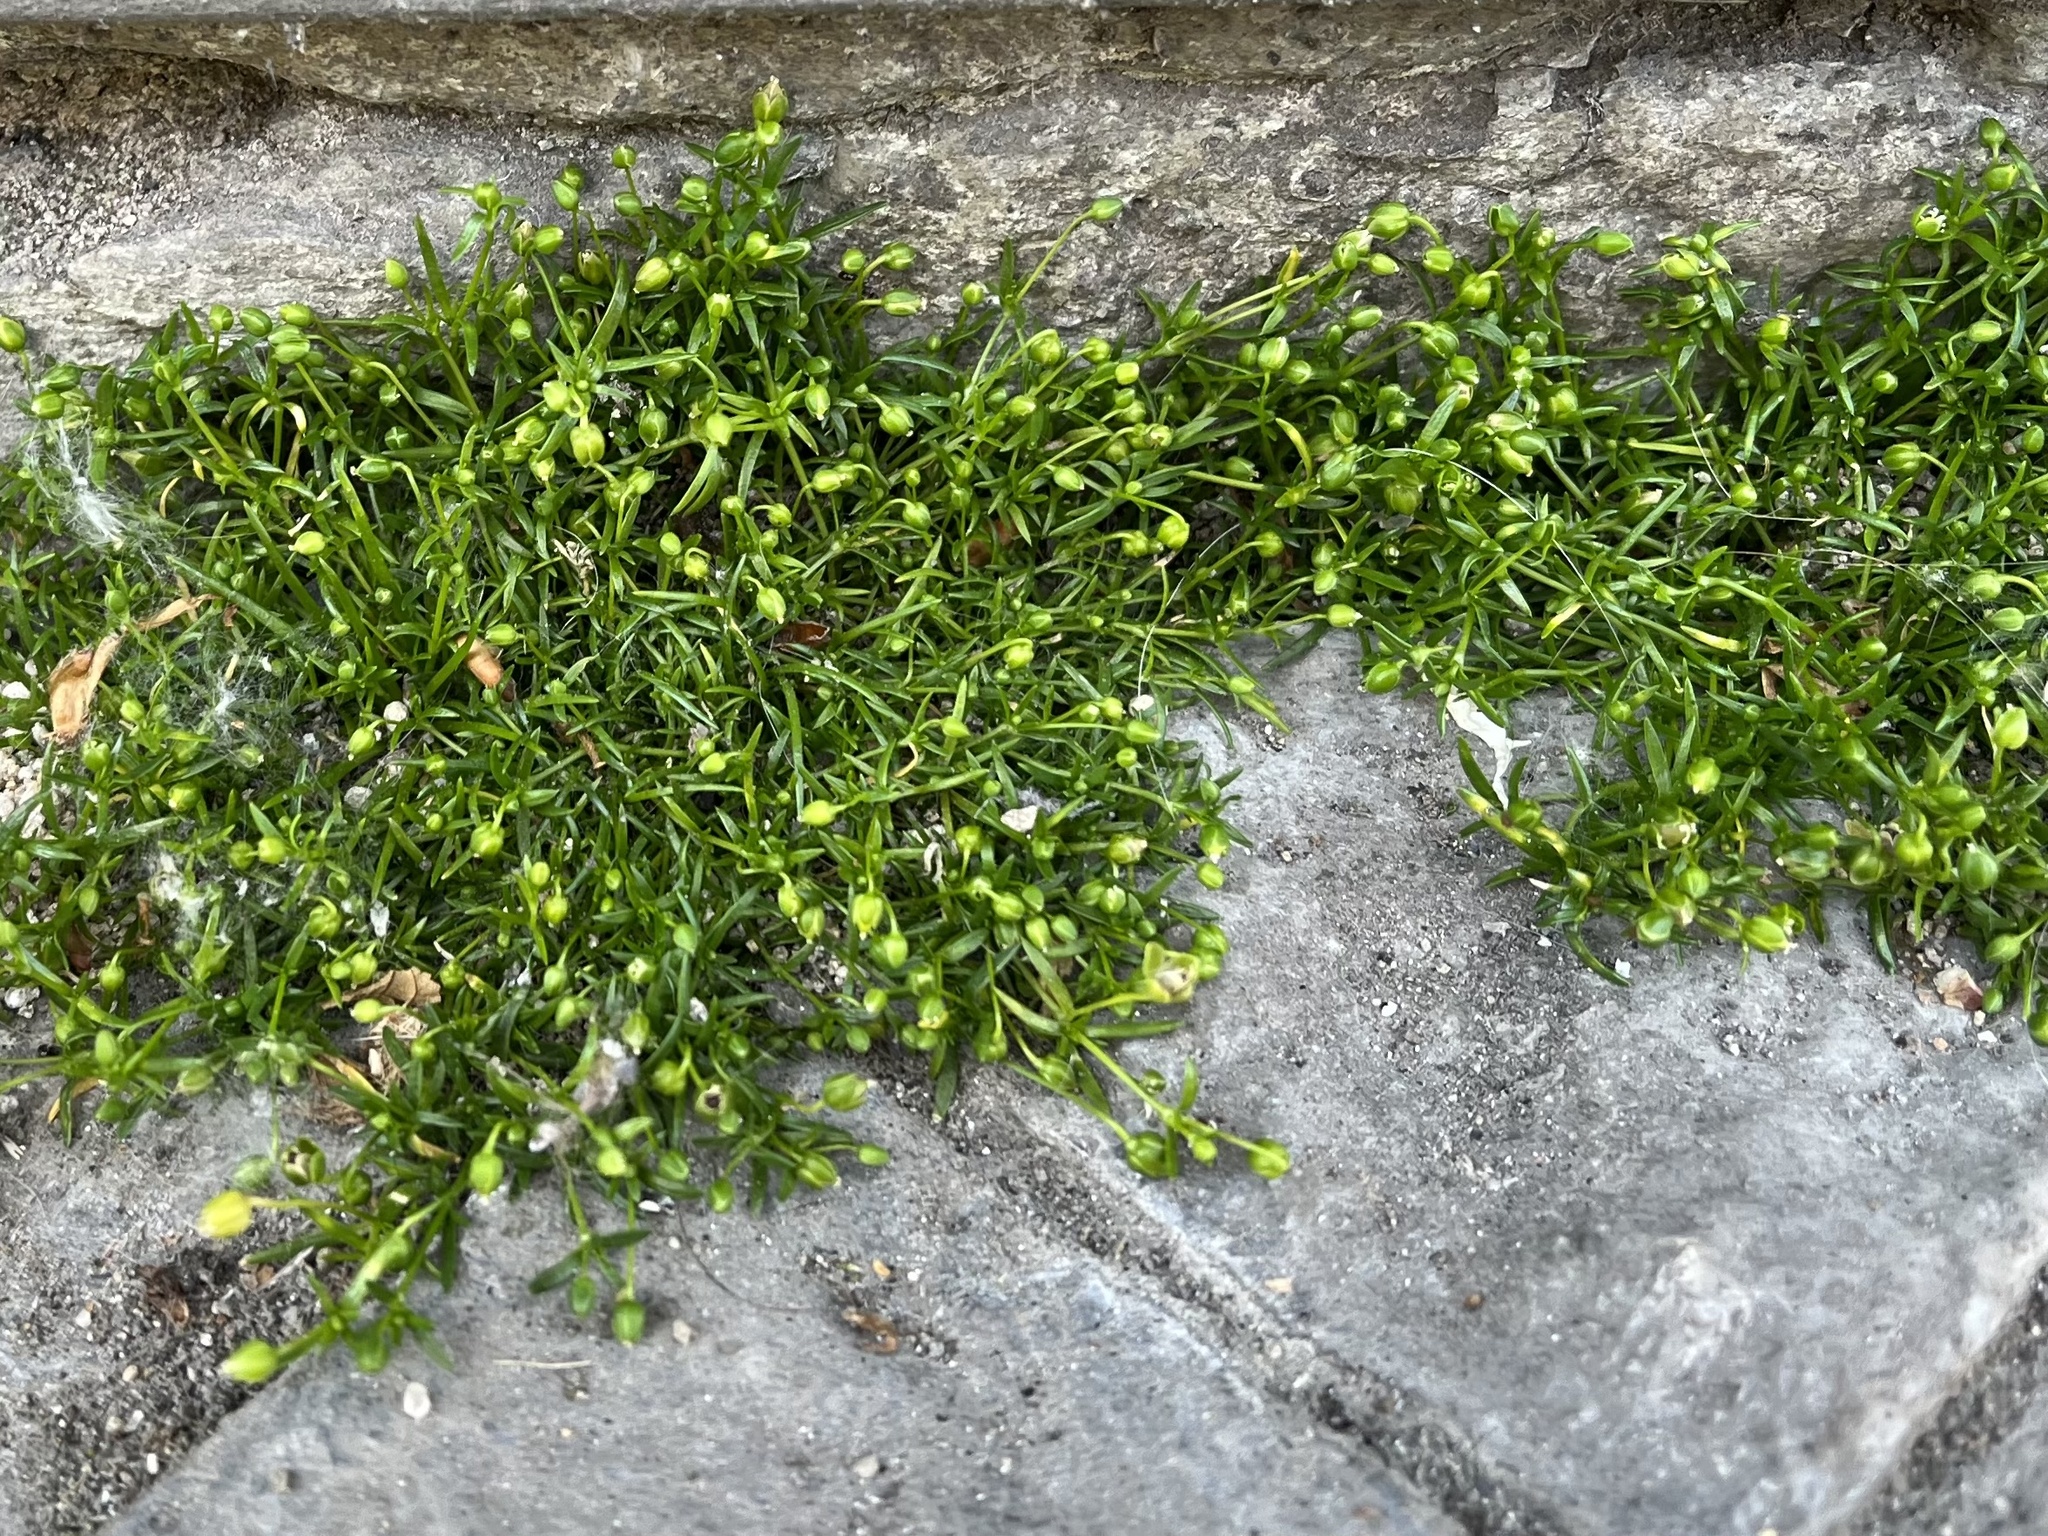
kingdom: Plantae
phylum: Tracheophyta
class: Magnoliopsida
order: Caryophyllales
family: Caryophyllaceae
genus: Sagina
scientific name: Sagina procumbens
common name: Procumbent pearlwort
